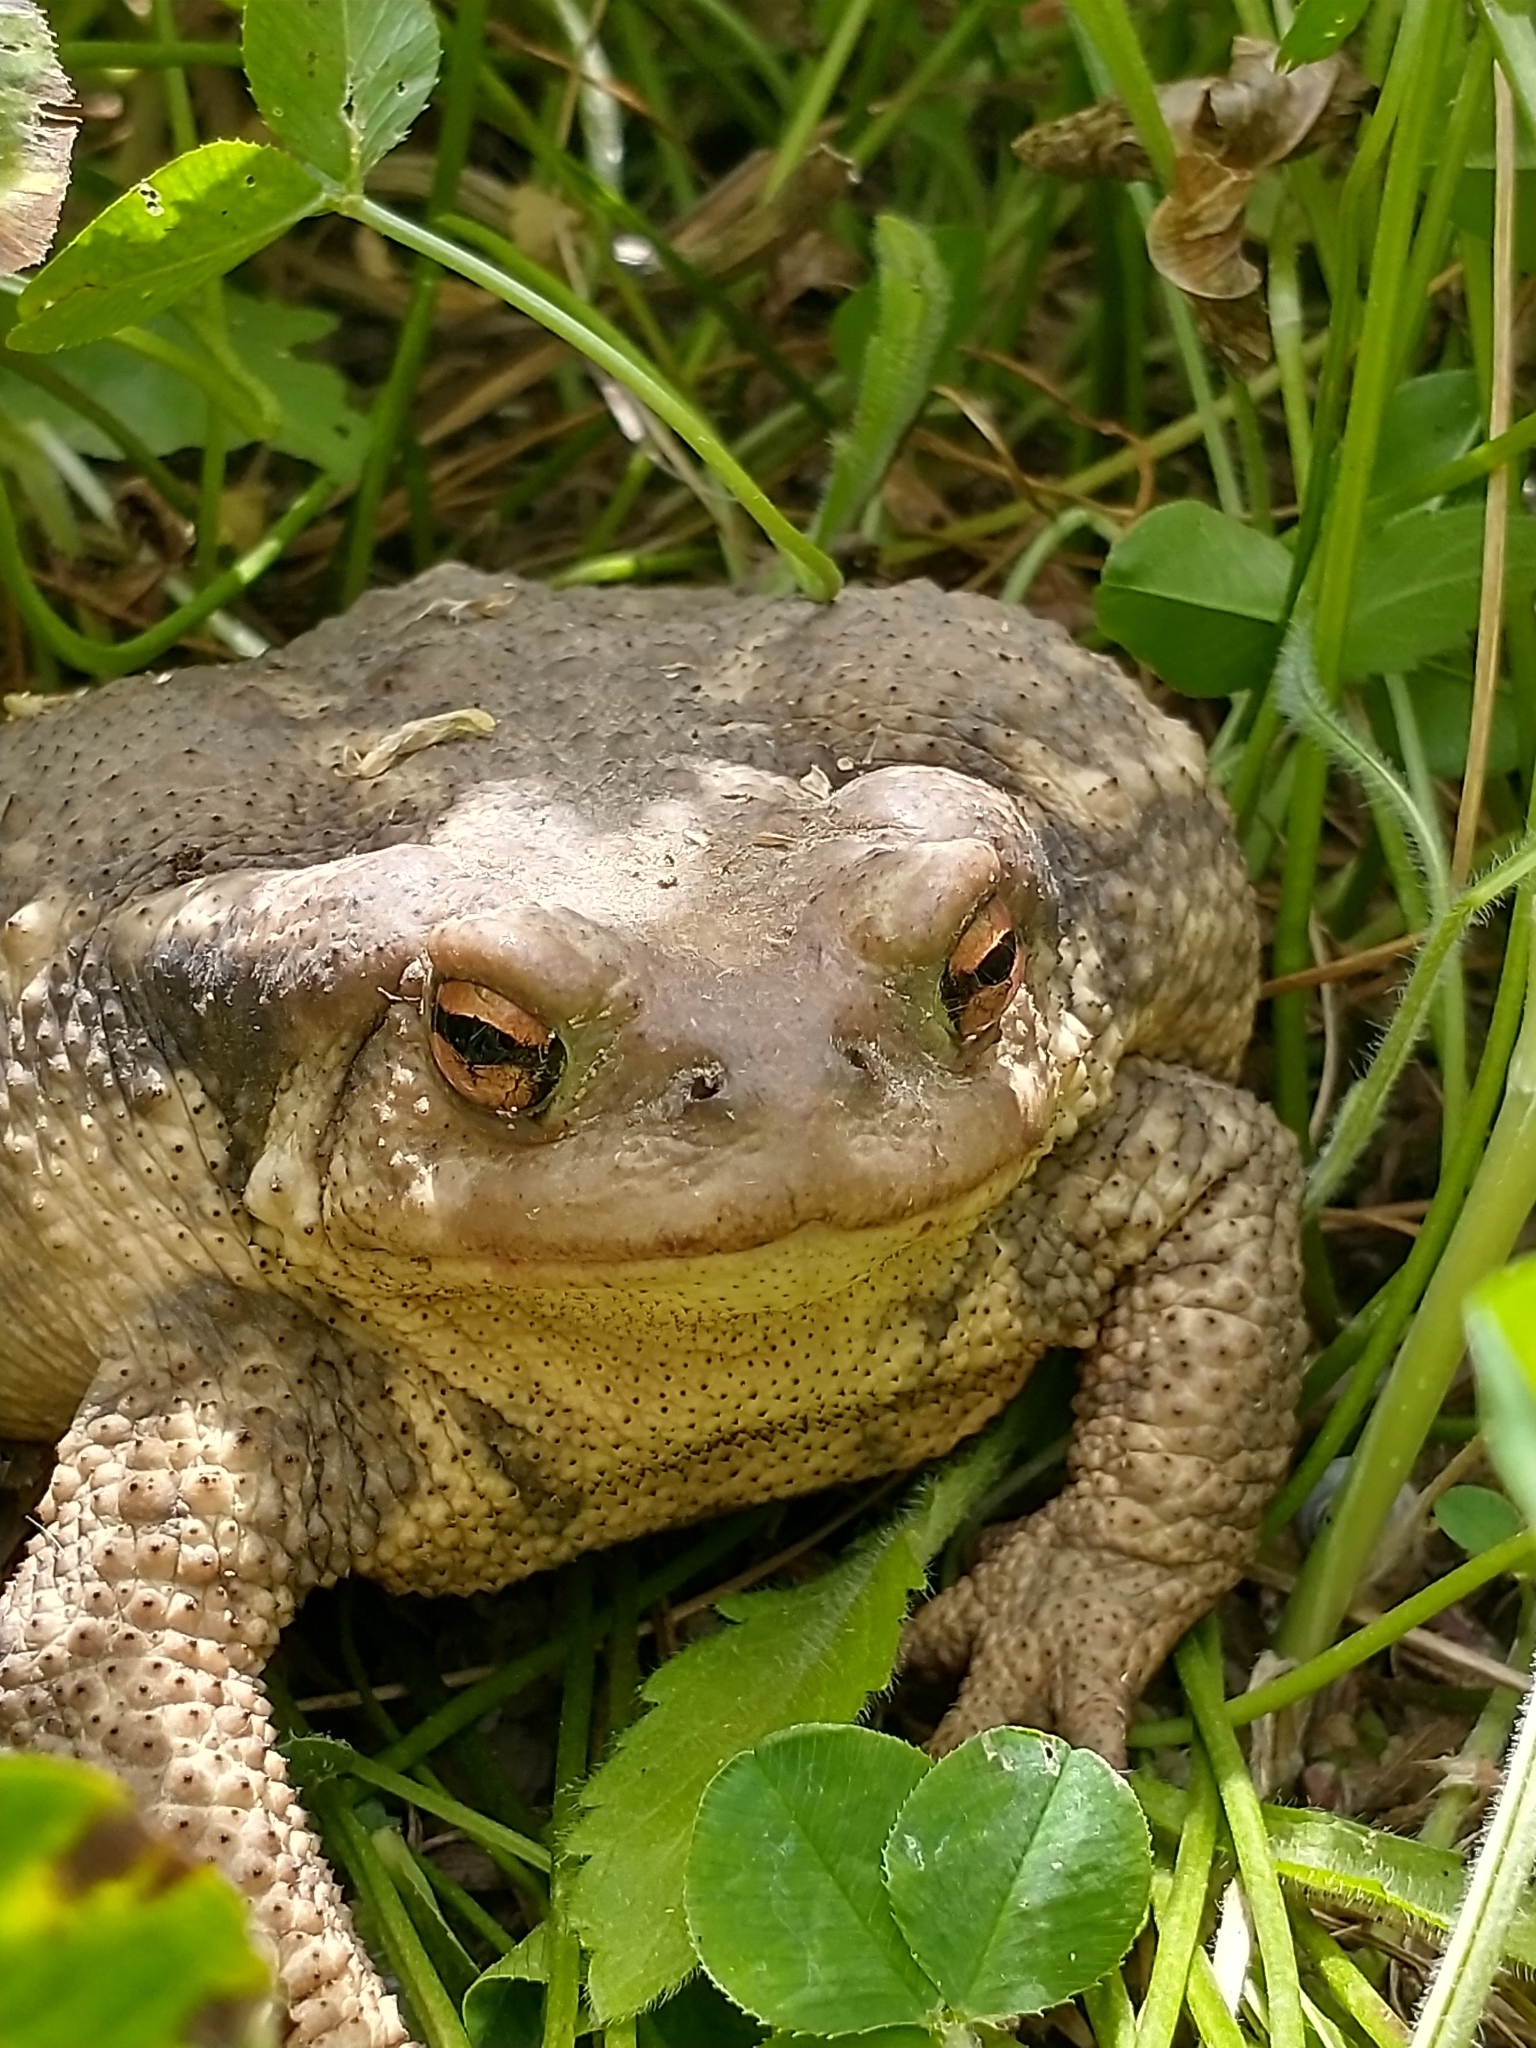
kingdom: Animalia
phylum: Chordata
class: Amphibia
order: Anura
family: Bufonidae
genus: Bufo
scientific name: Bufo spinosus
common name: Western common toad
